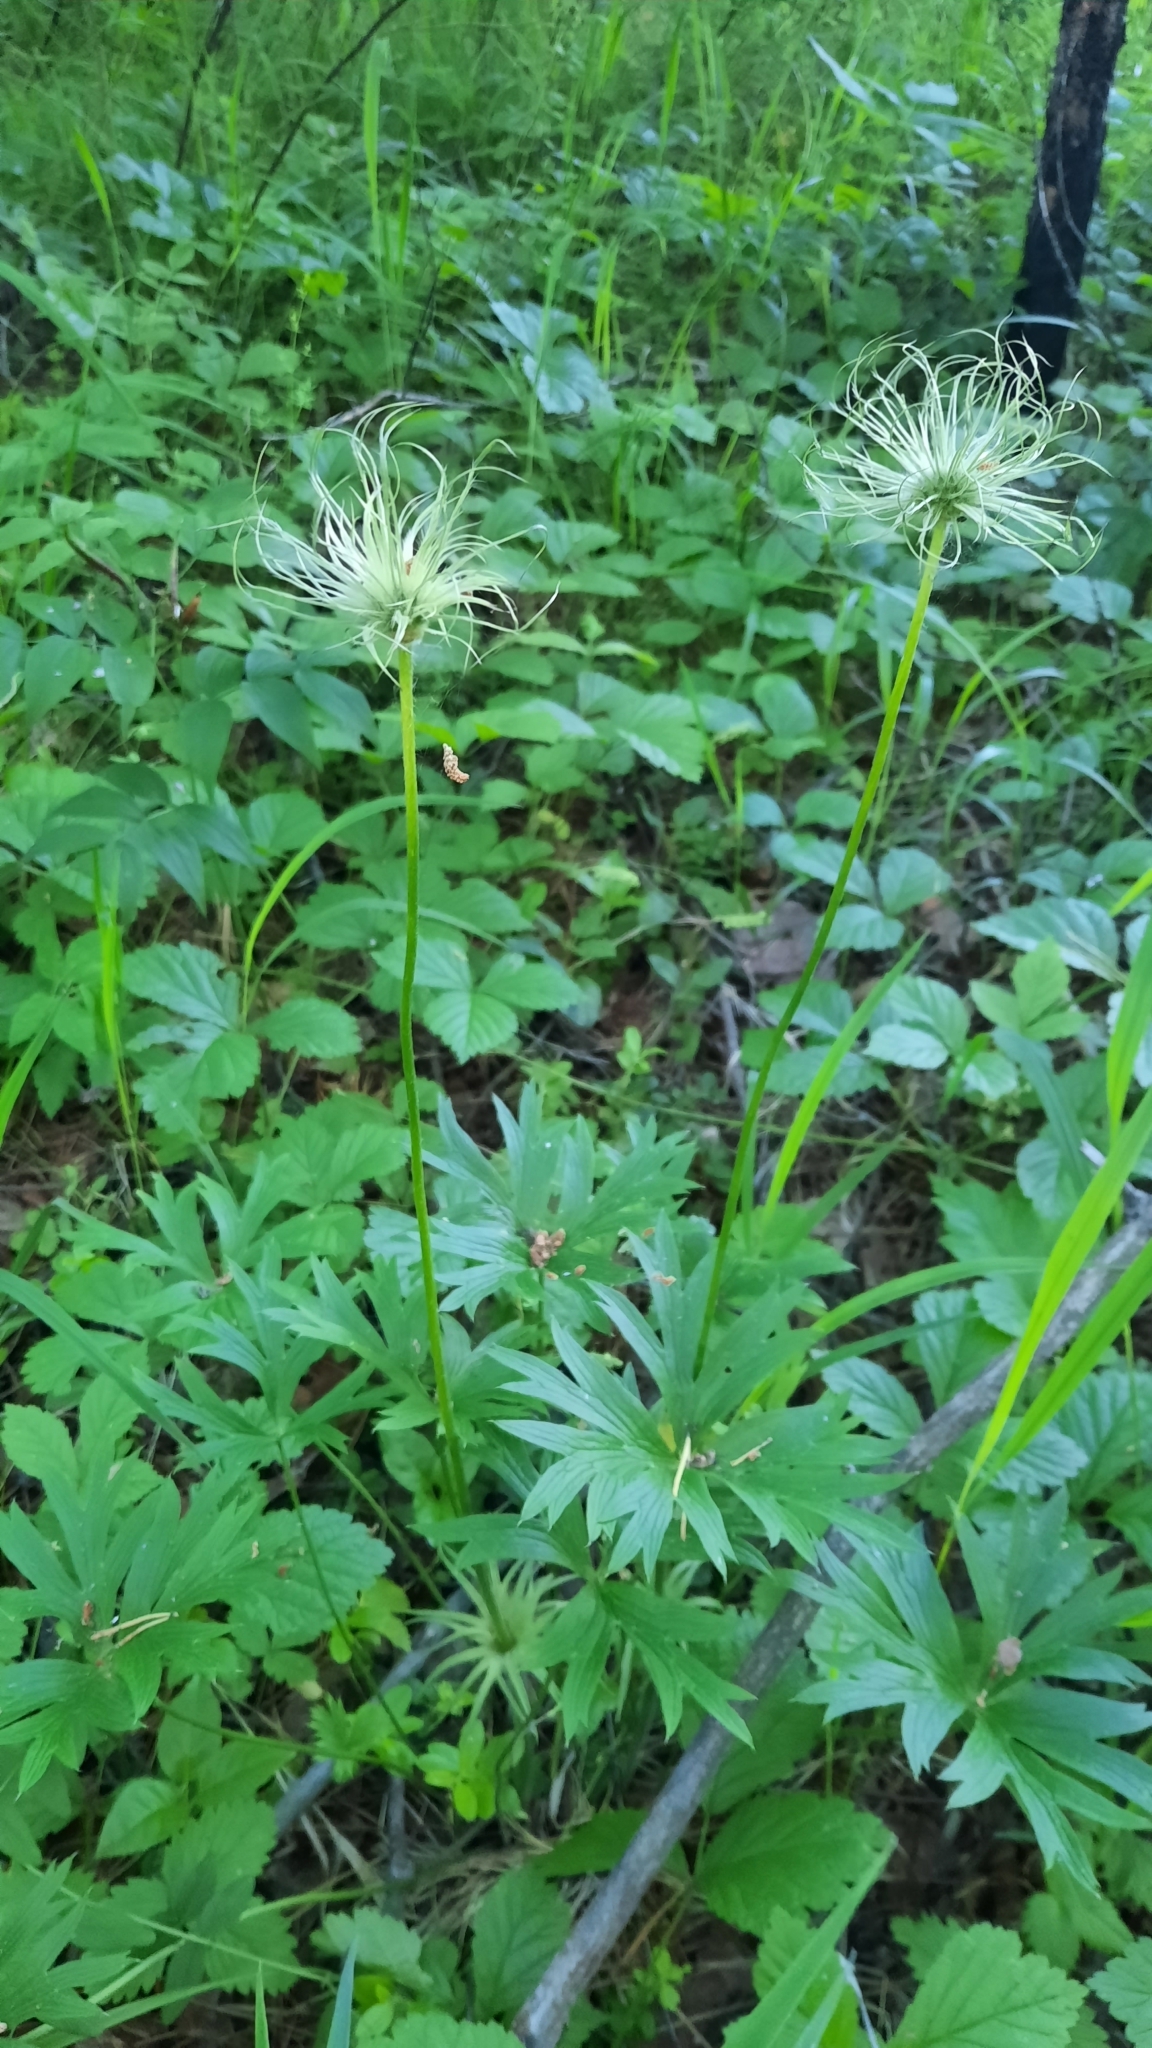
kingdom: Plantae
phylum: Tracheophyta
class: Magnoliopsida
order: Ranunculales
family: Ranunculaceae
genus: Pulsatilla
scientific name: Pulsatilla patens
